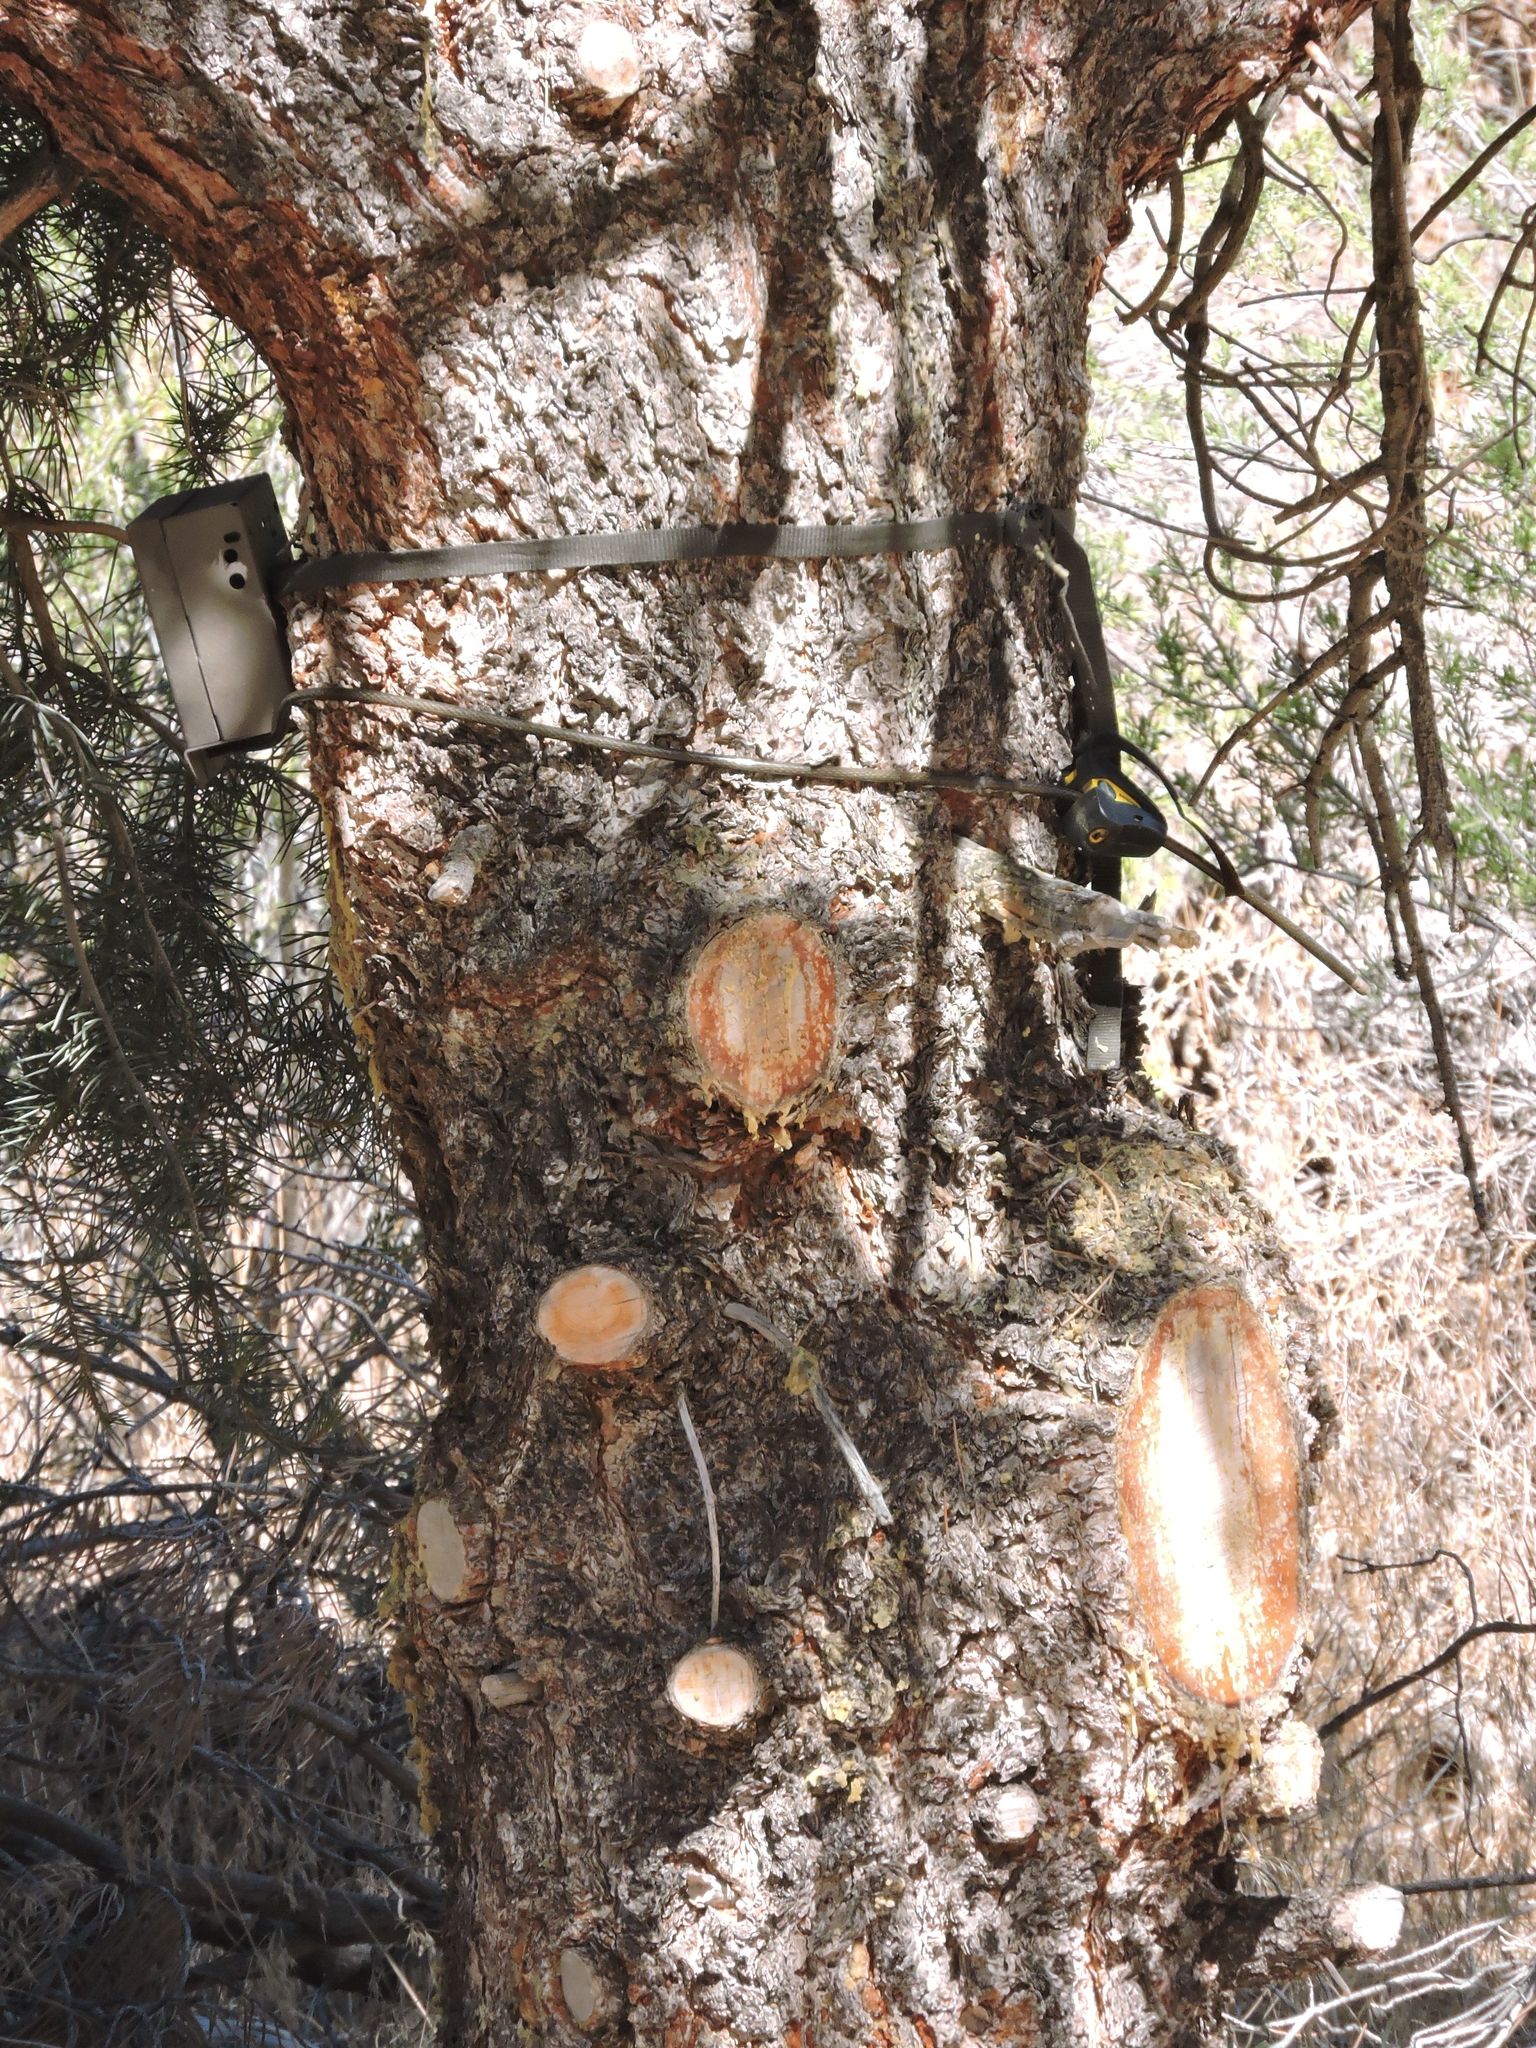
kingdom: Plantae
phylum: Tracheophyta
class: Pinopsida
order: Pinales
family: Pinaceae
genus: Pinus
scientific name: Pinus monophylla
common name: One-leaved nut pine
